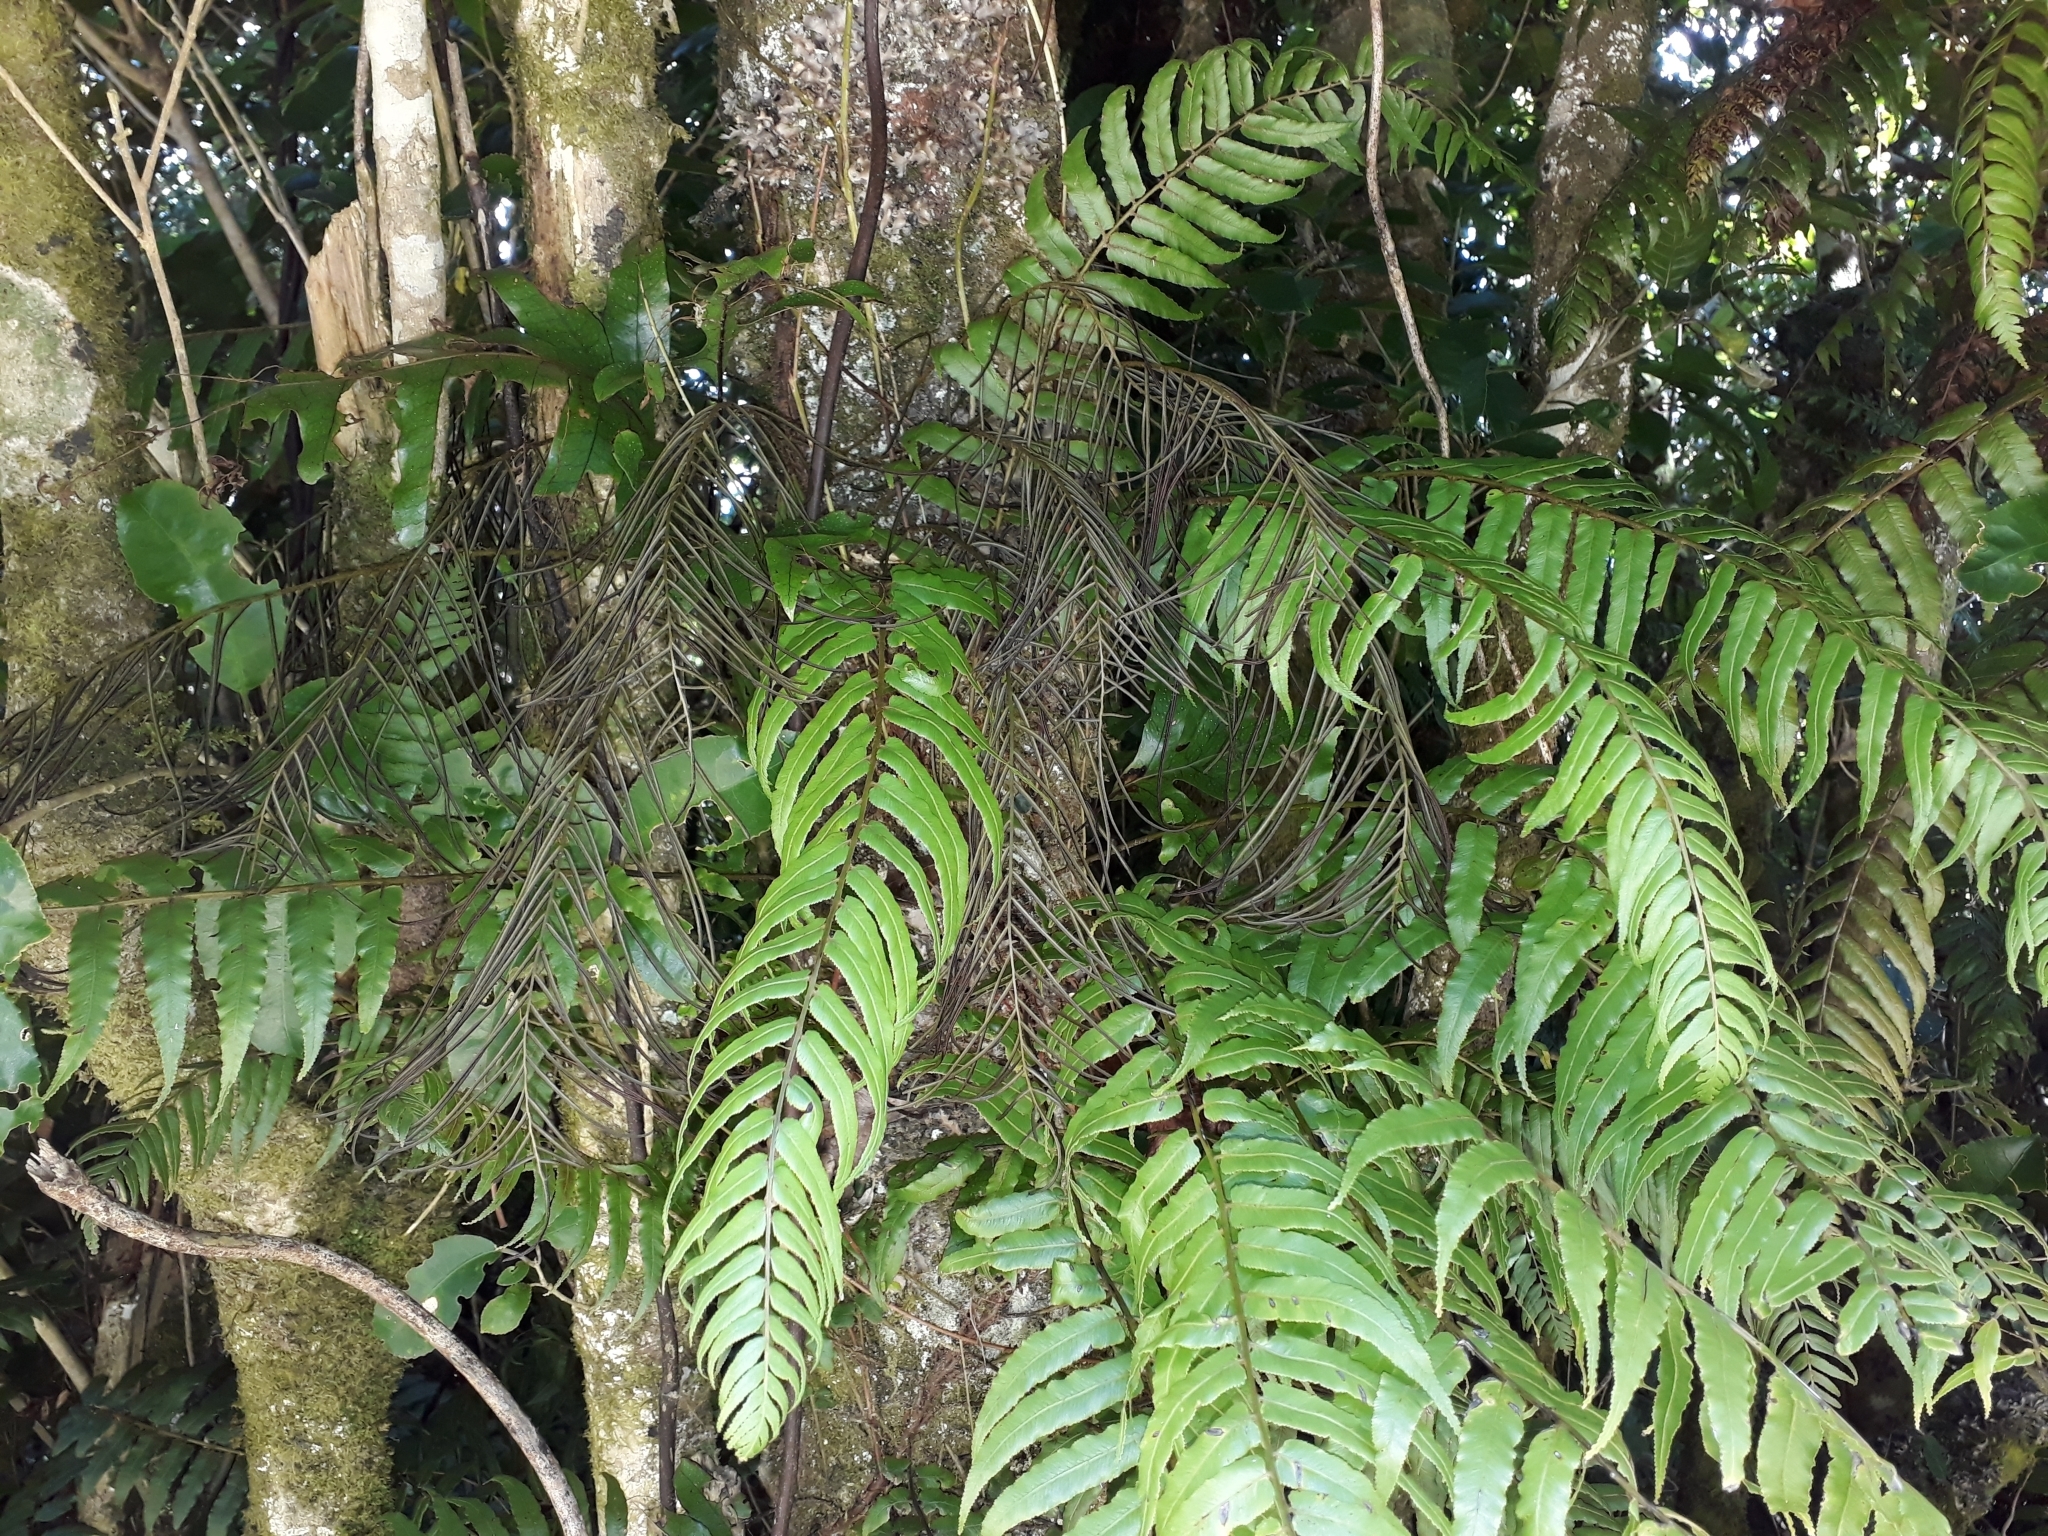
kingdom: Plantae
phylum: Tracheophyta
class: Polypodiopsida
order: Polypodiales
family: Blechnaceae
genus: Icarus
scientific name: Icarus filiformis
